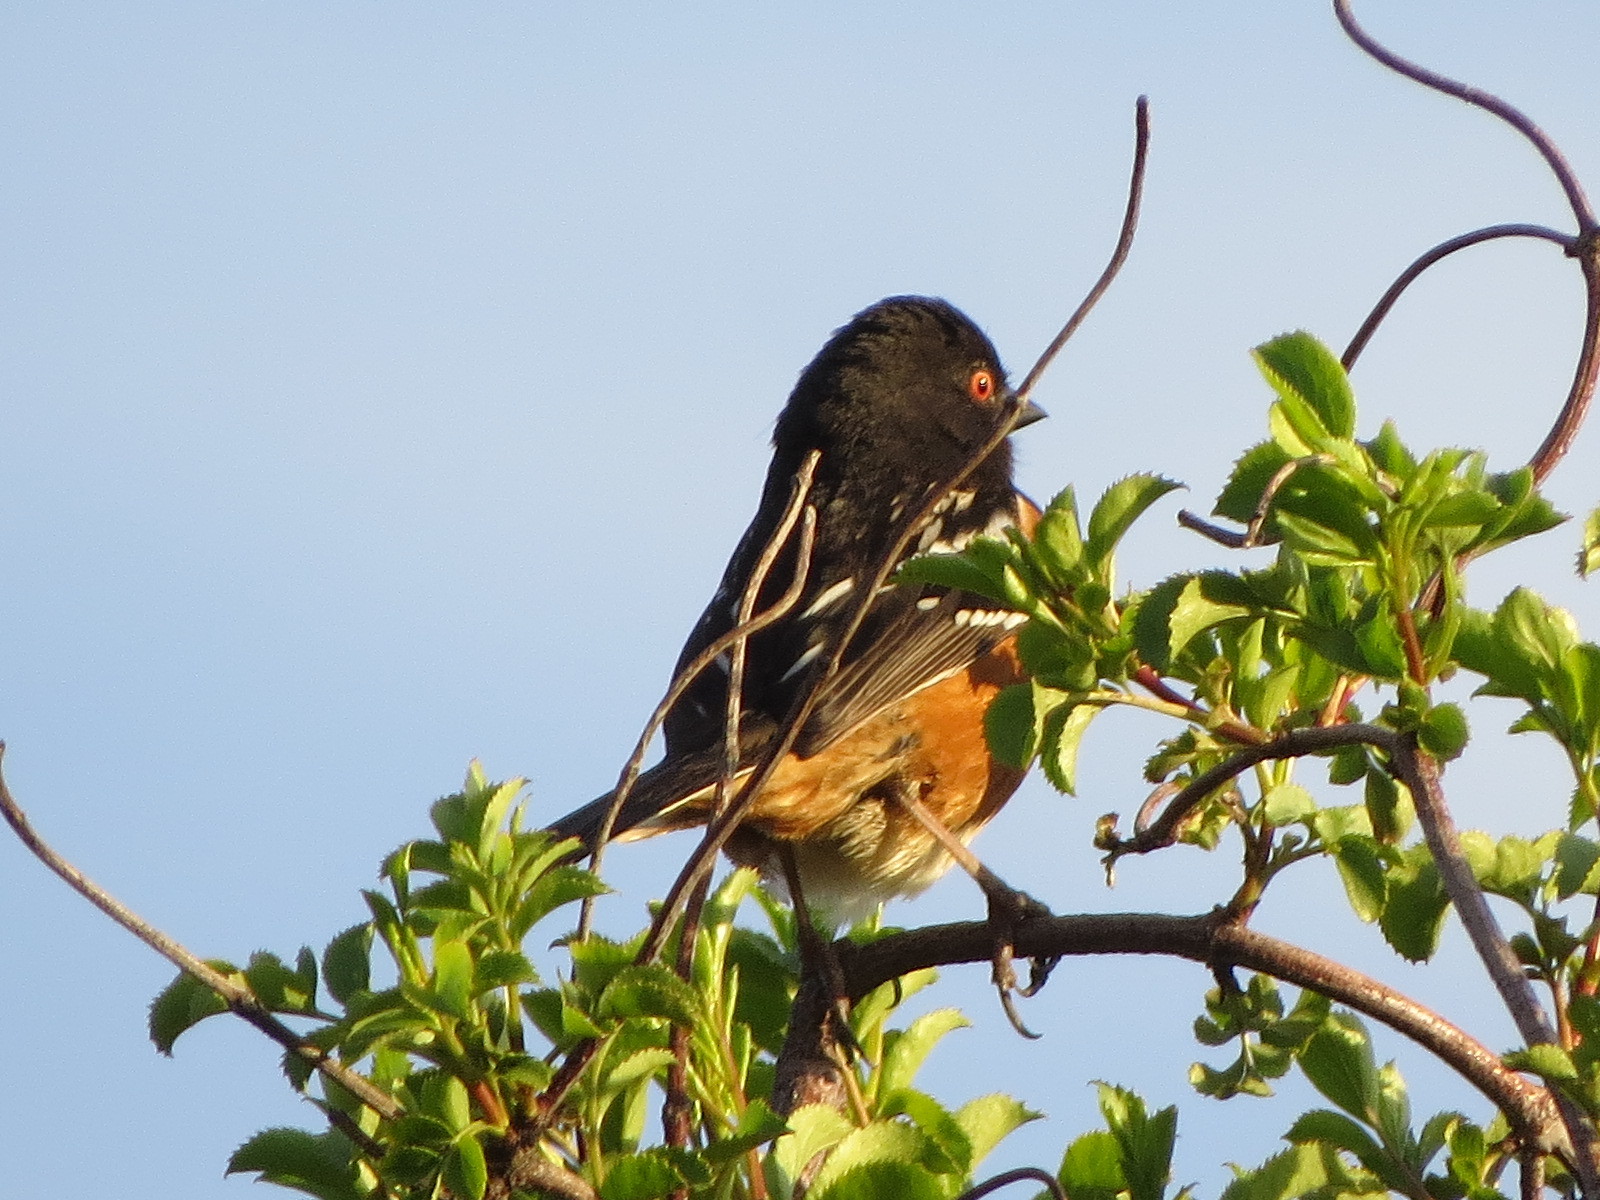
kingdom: Animalia
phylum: Chordata
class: Aves
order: Passeriformes
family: Passerellidae
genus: Pipilo
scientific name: Pipilo maculatus
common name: Spotted towhee
